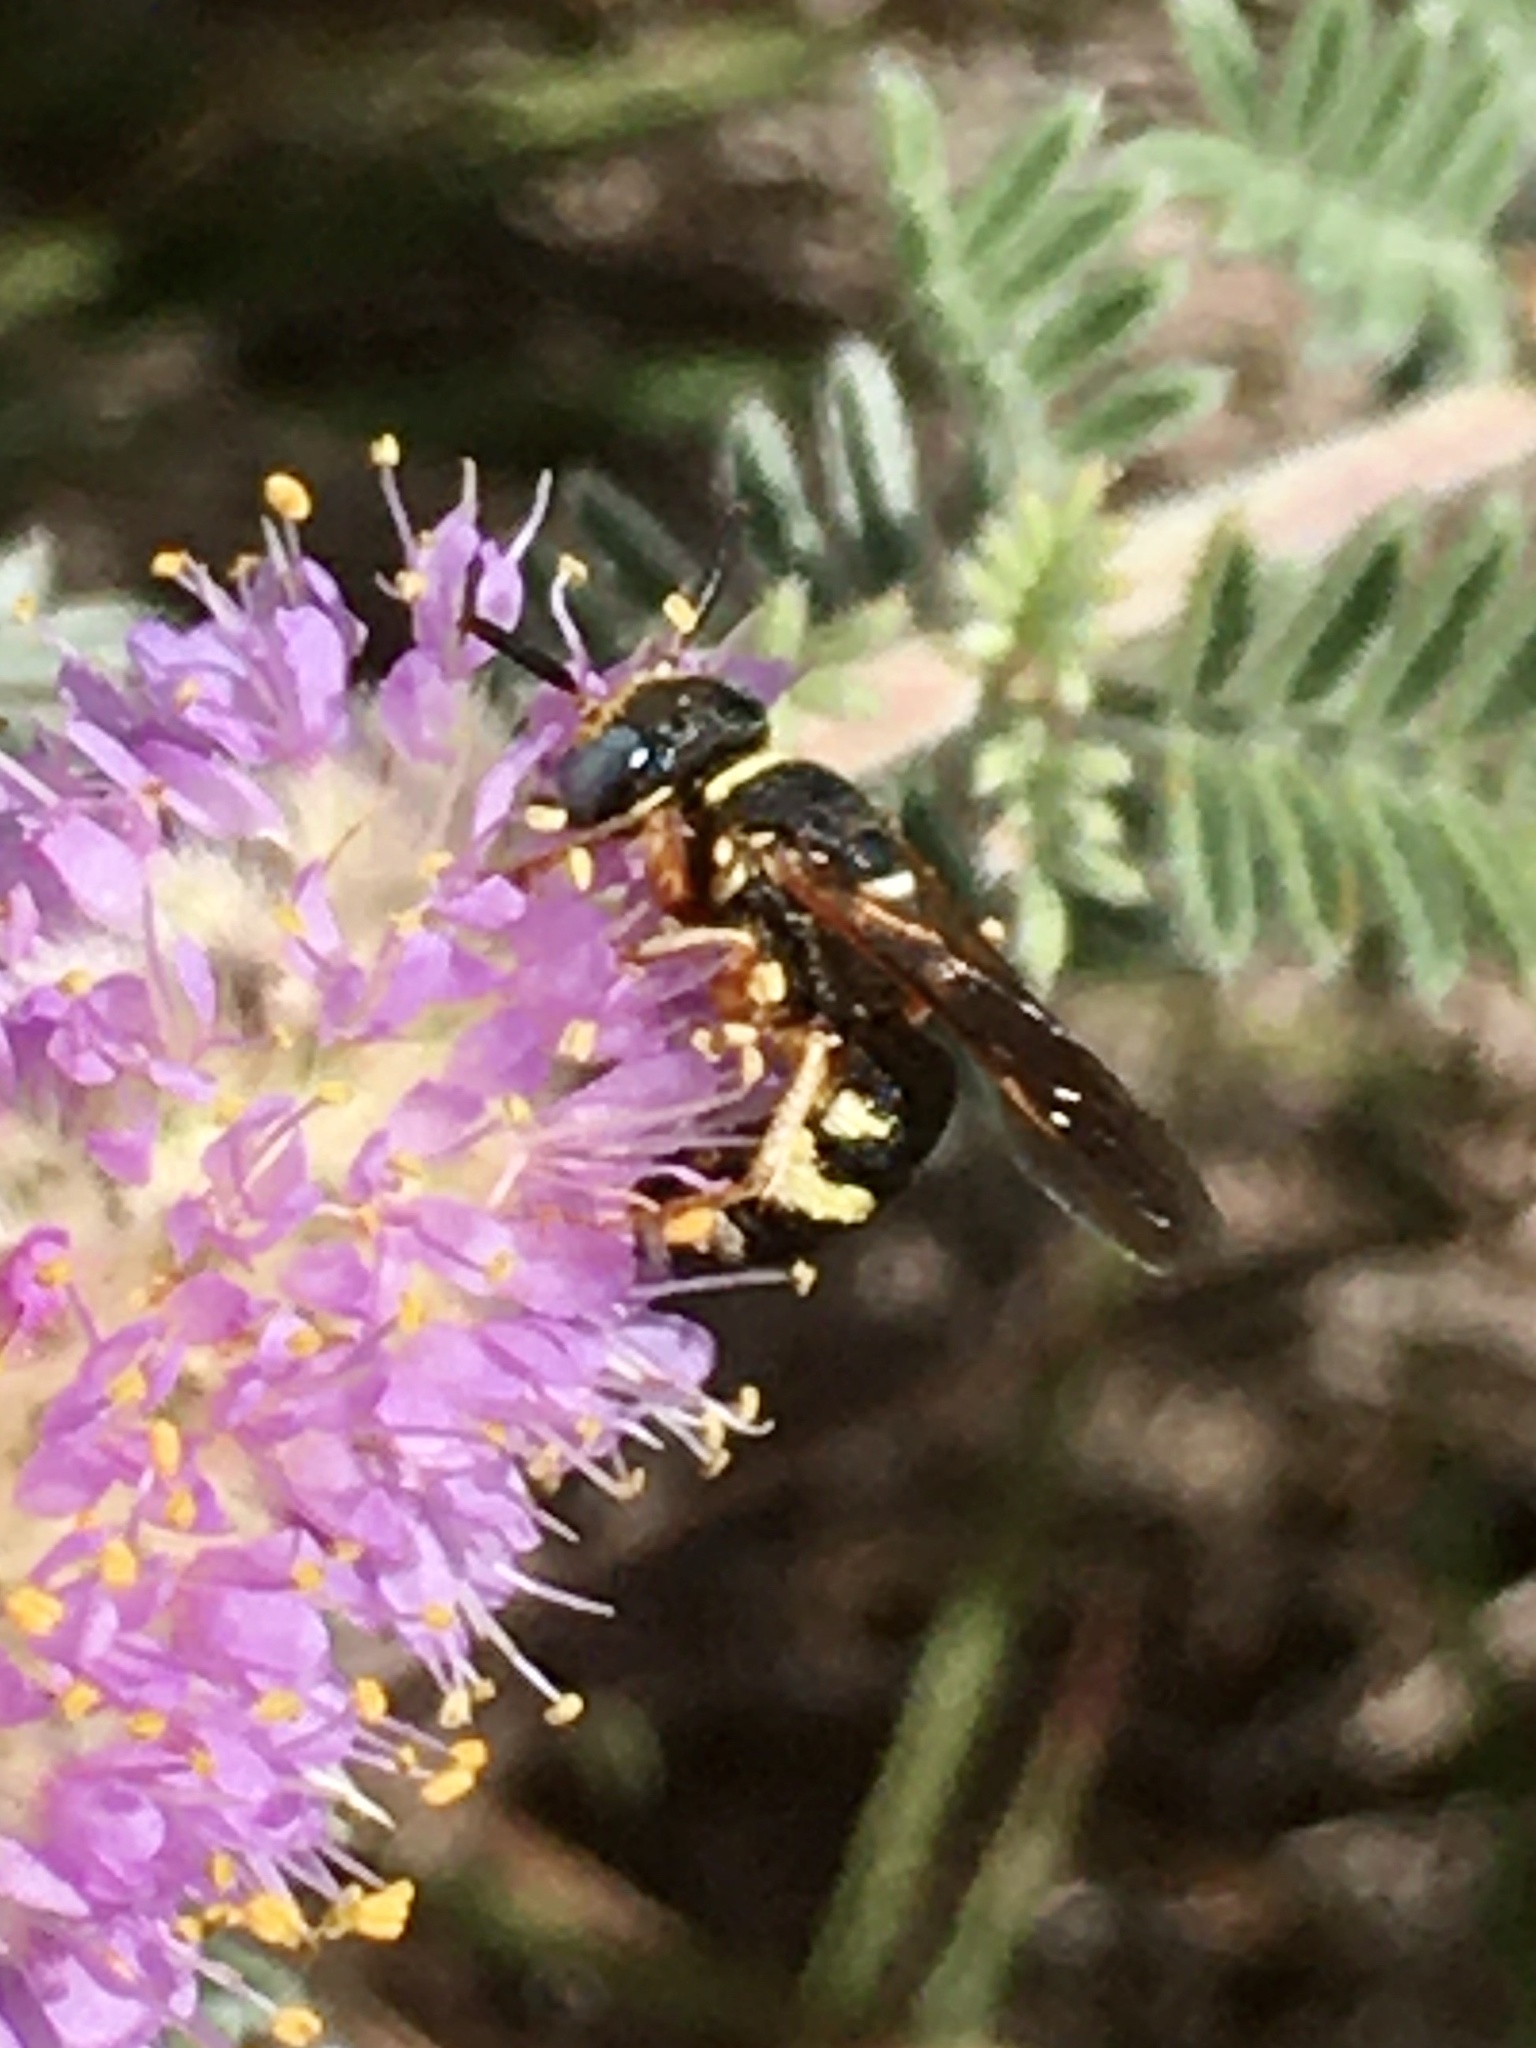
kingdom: Animalia
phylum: Arthropoda
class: Insecta
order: Hymenoptera
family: Crabronidae
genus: Philanthus
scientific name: Philanthus ventilabris
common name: Bee-killer wasp
